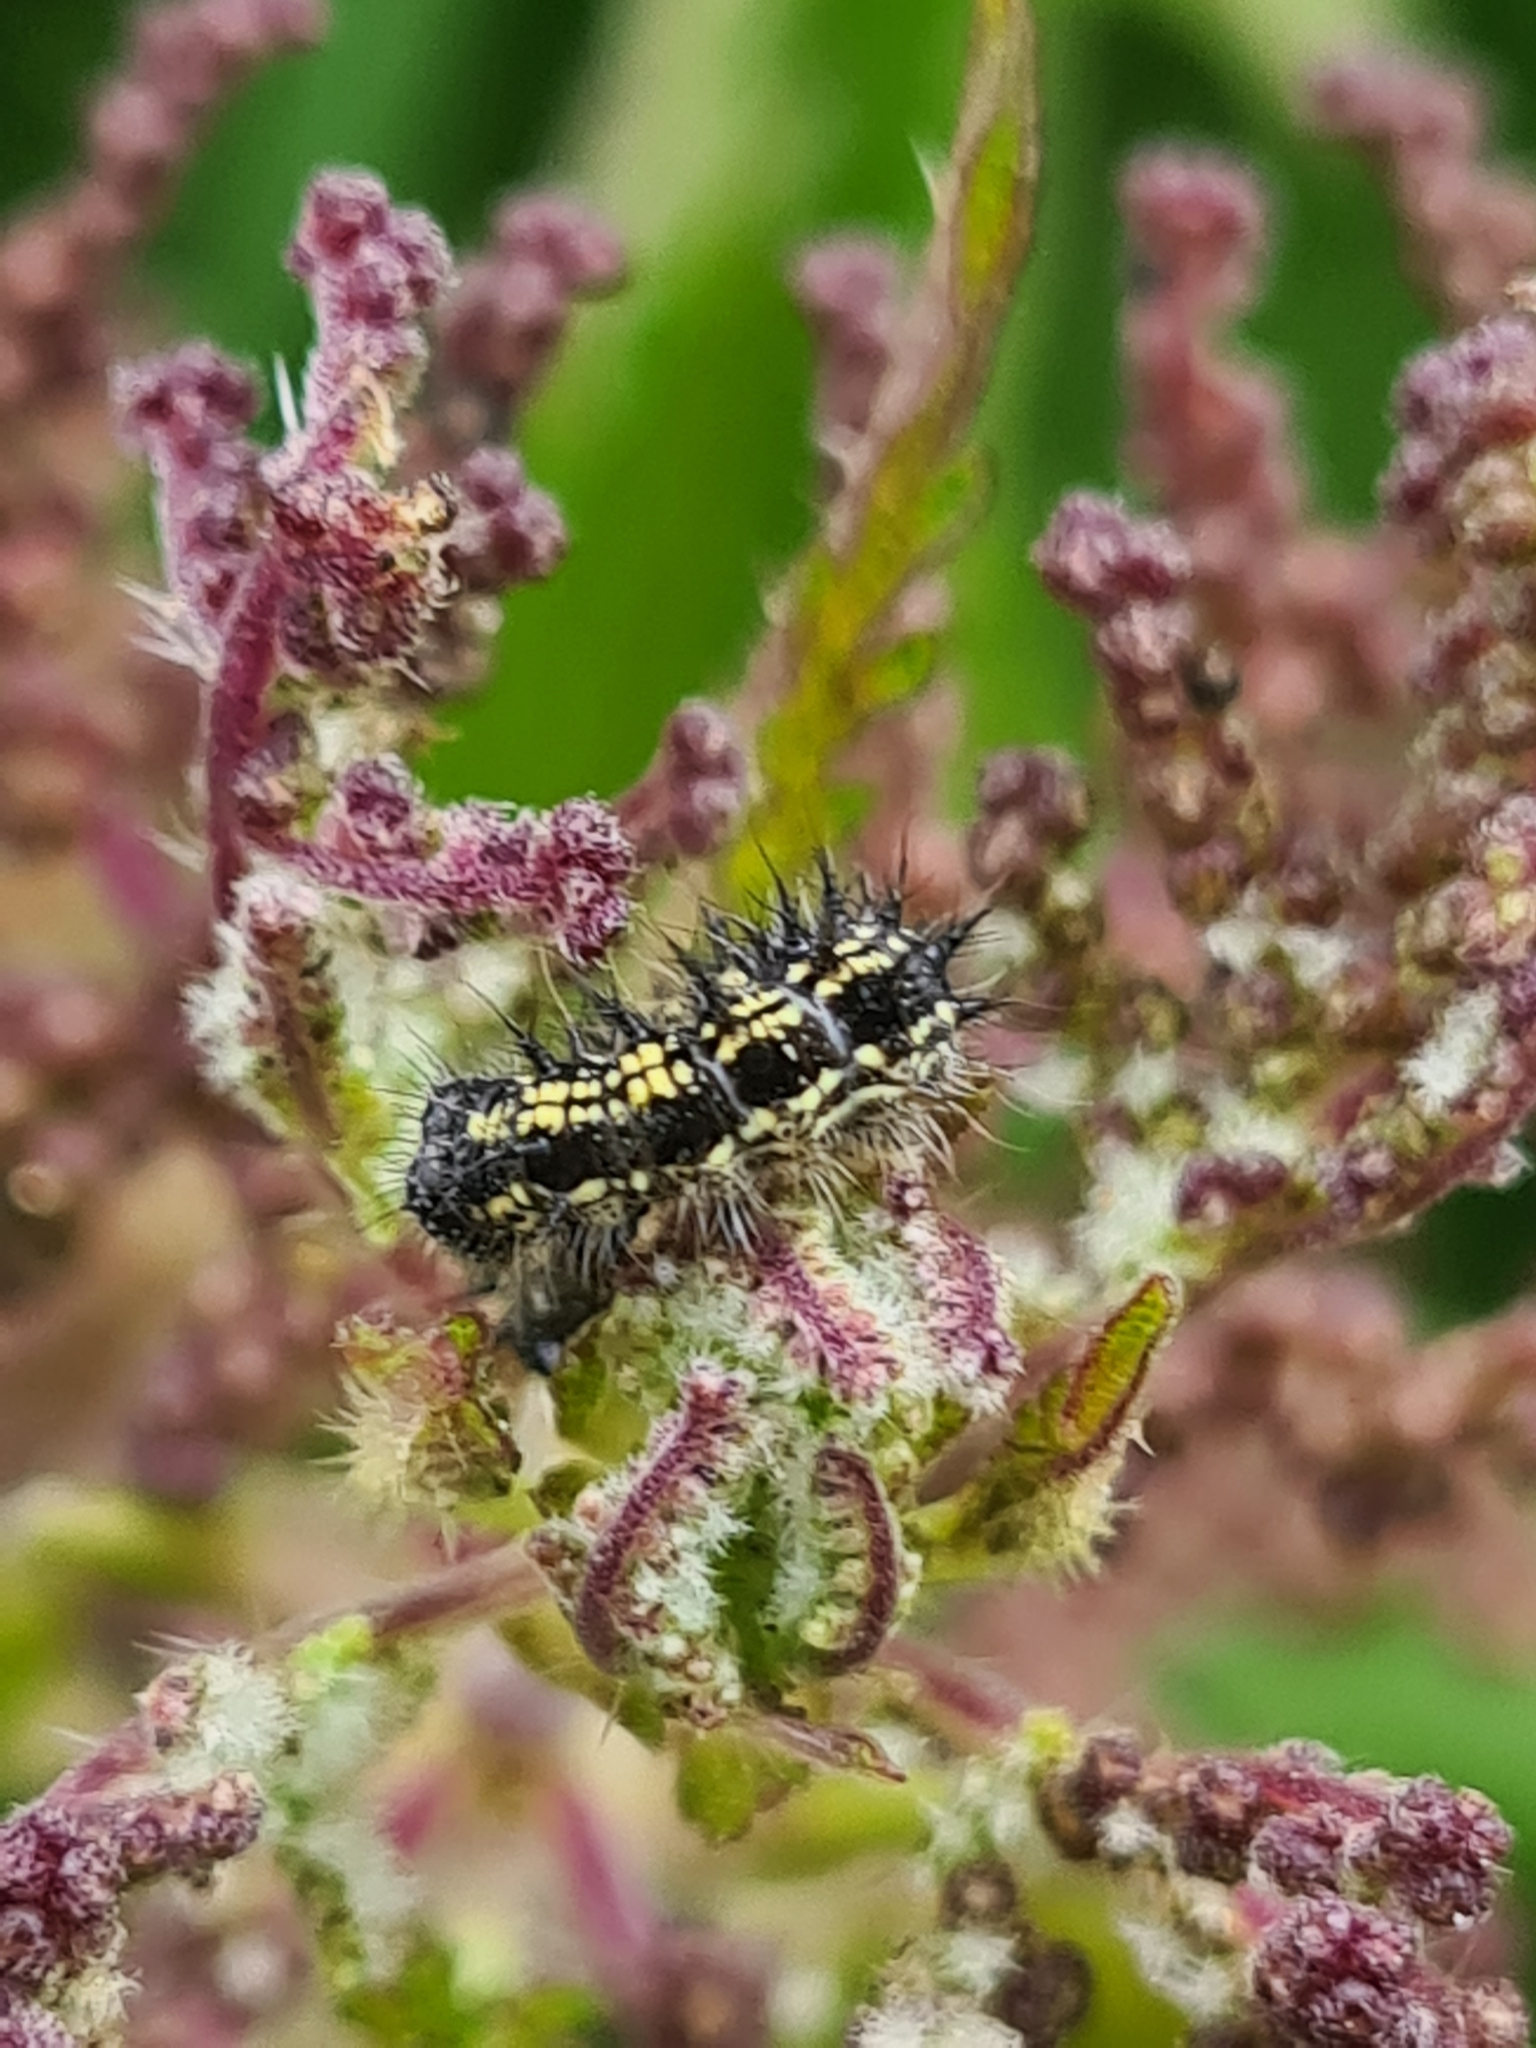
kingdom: Animalia
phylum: Arthropoda
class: Insecta
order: Lepidoptera
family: Nymphalidae
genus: Aglais
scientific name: Aglais urticae
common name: Small tortoiseshell
